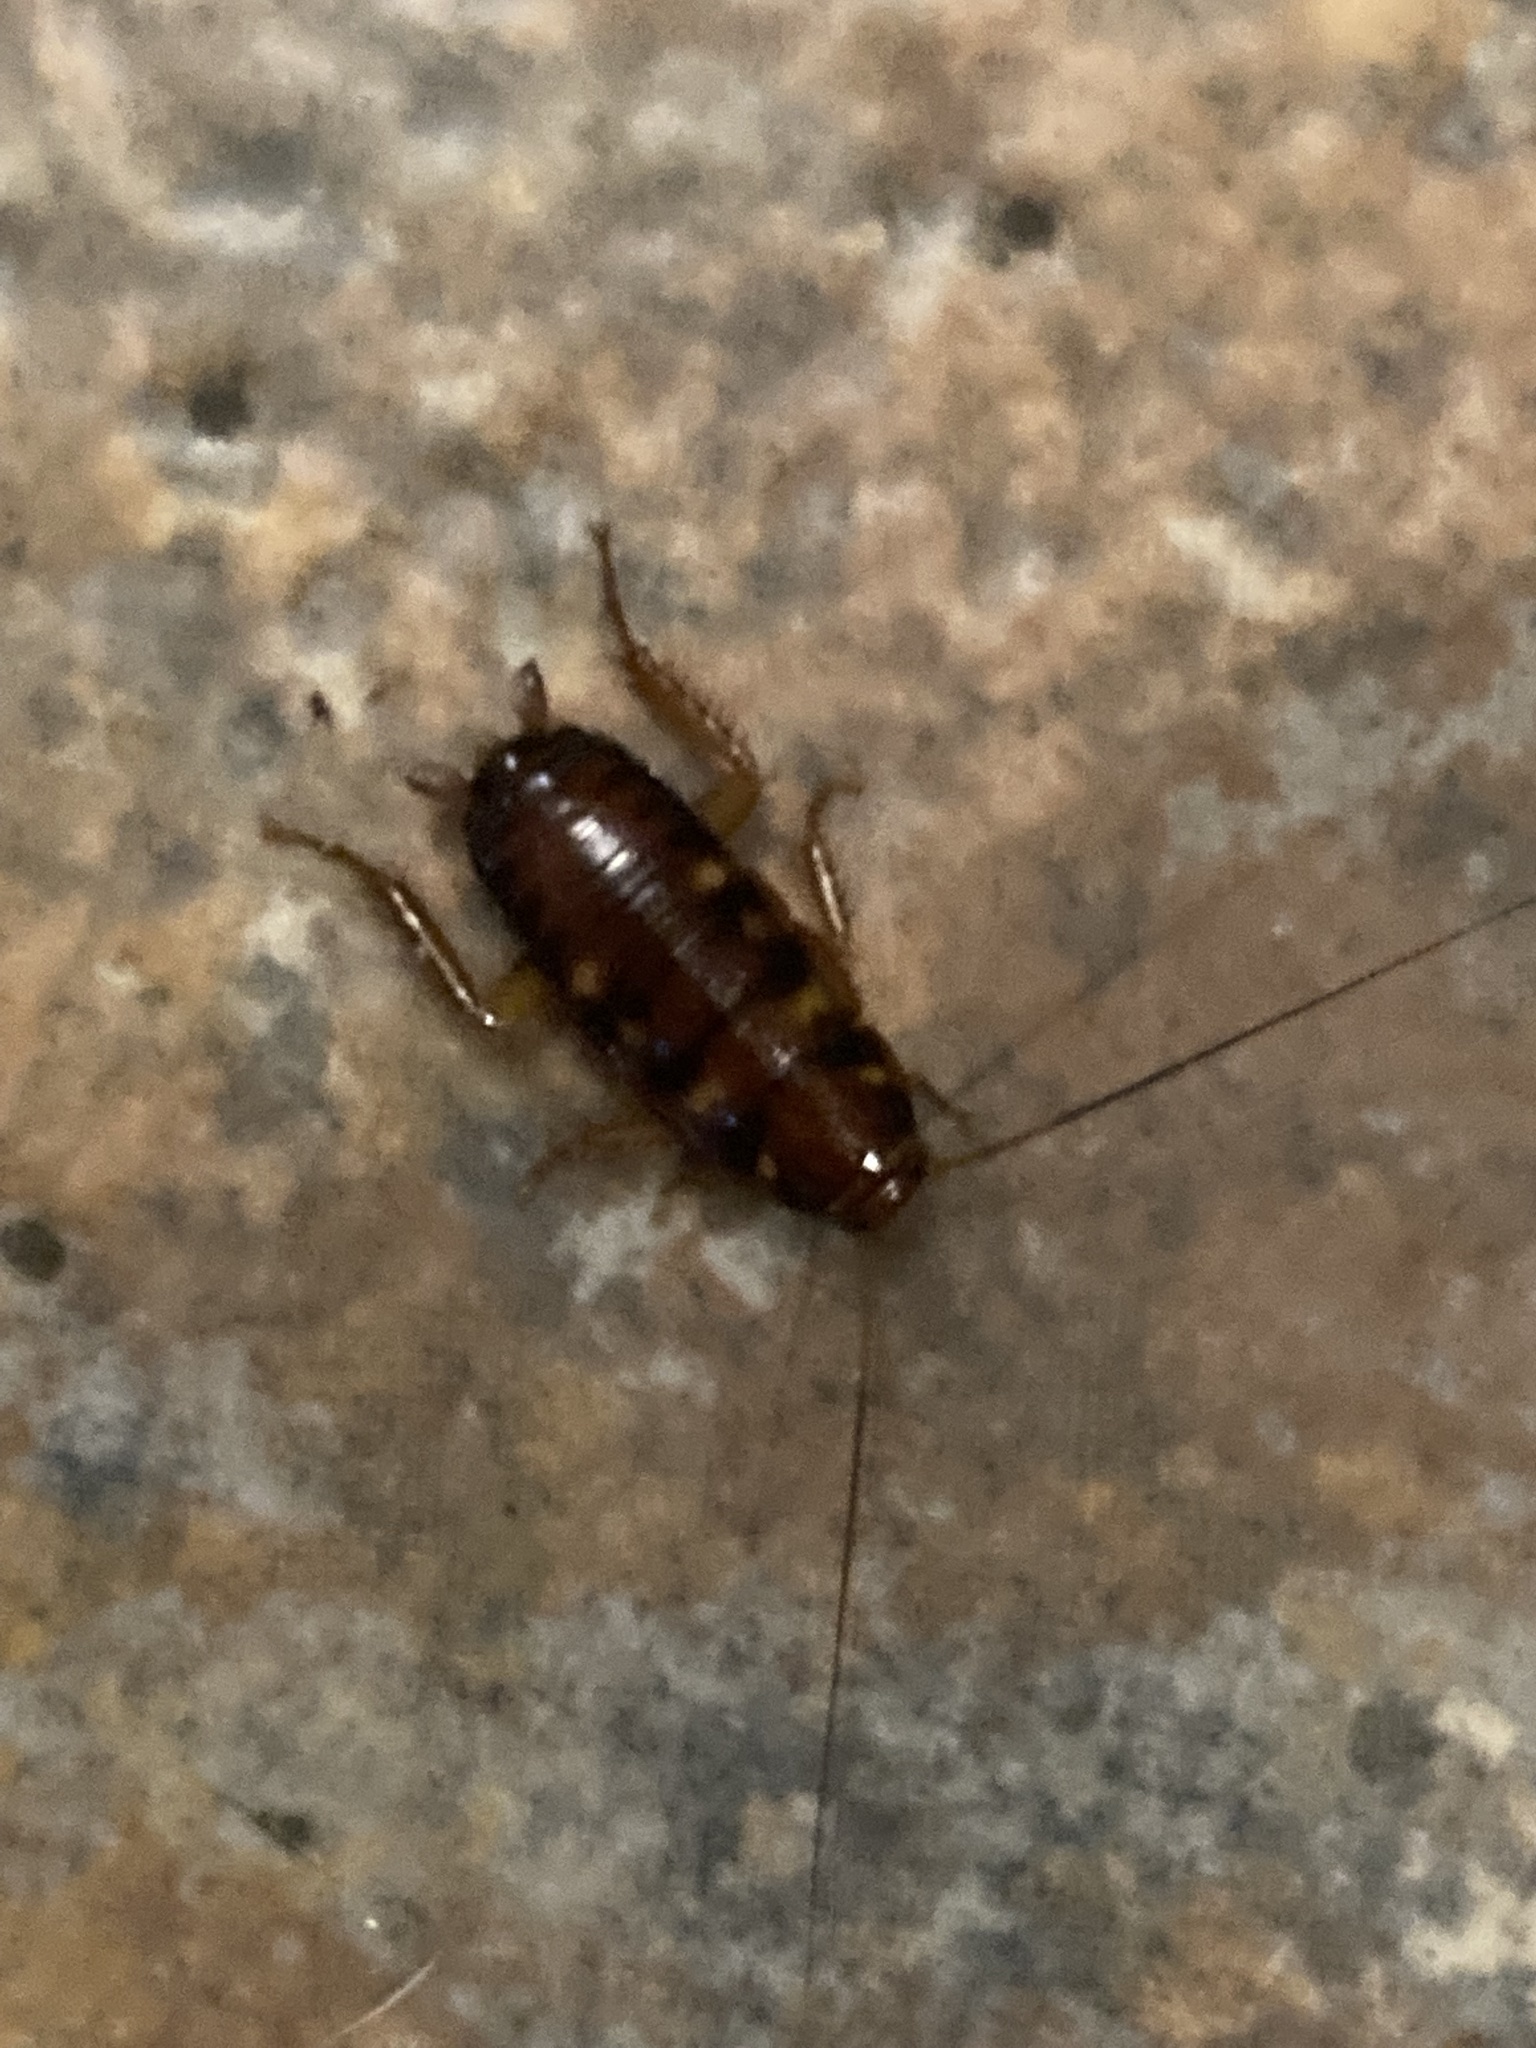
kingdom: Animalia
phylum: Arthropoda
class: Insecta
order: Blattodea
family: Blattidae
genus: Periplaneta
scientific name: Periplaneta australasiae
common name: Australian cockroach
